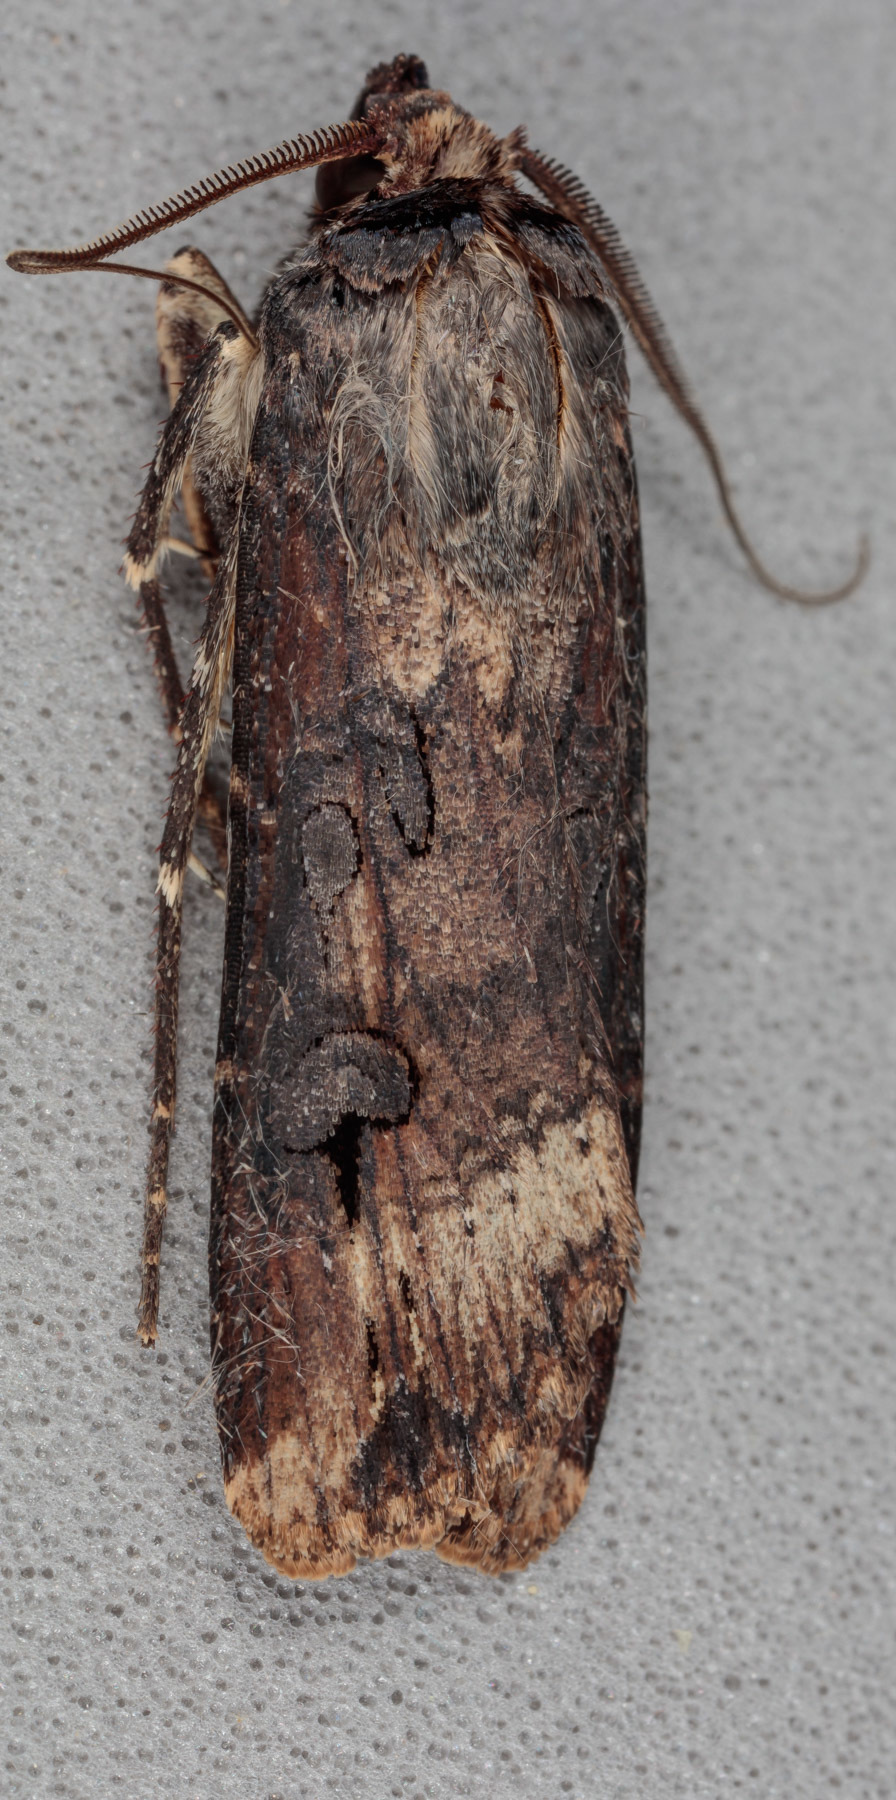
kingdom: Animalia
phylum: Arthropoda
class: Insecta
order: Lepidoptera
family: Noctuidae
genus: Agrotis
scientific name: Agrotis ipsilon
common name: Dark sword-grass
